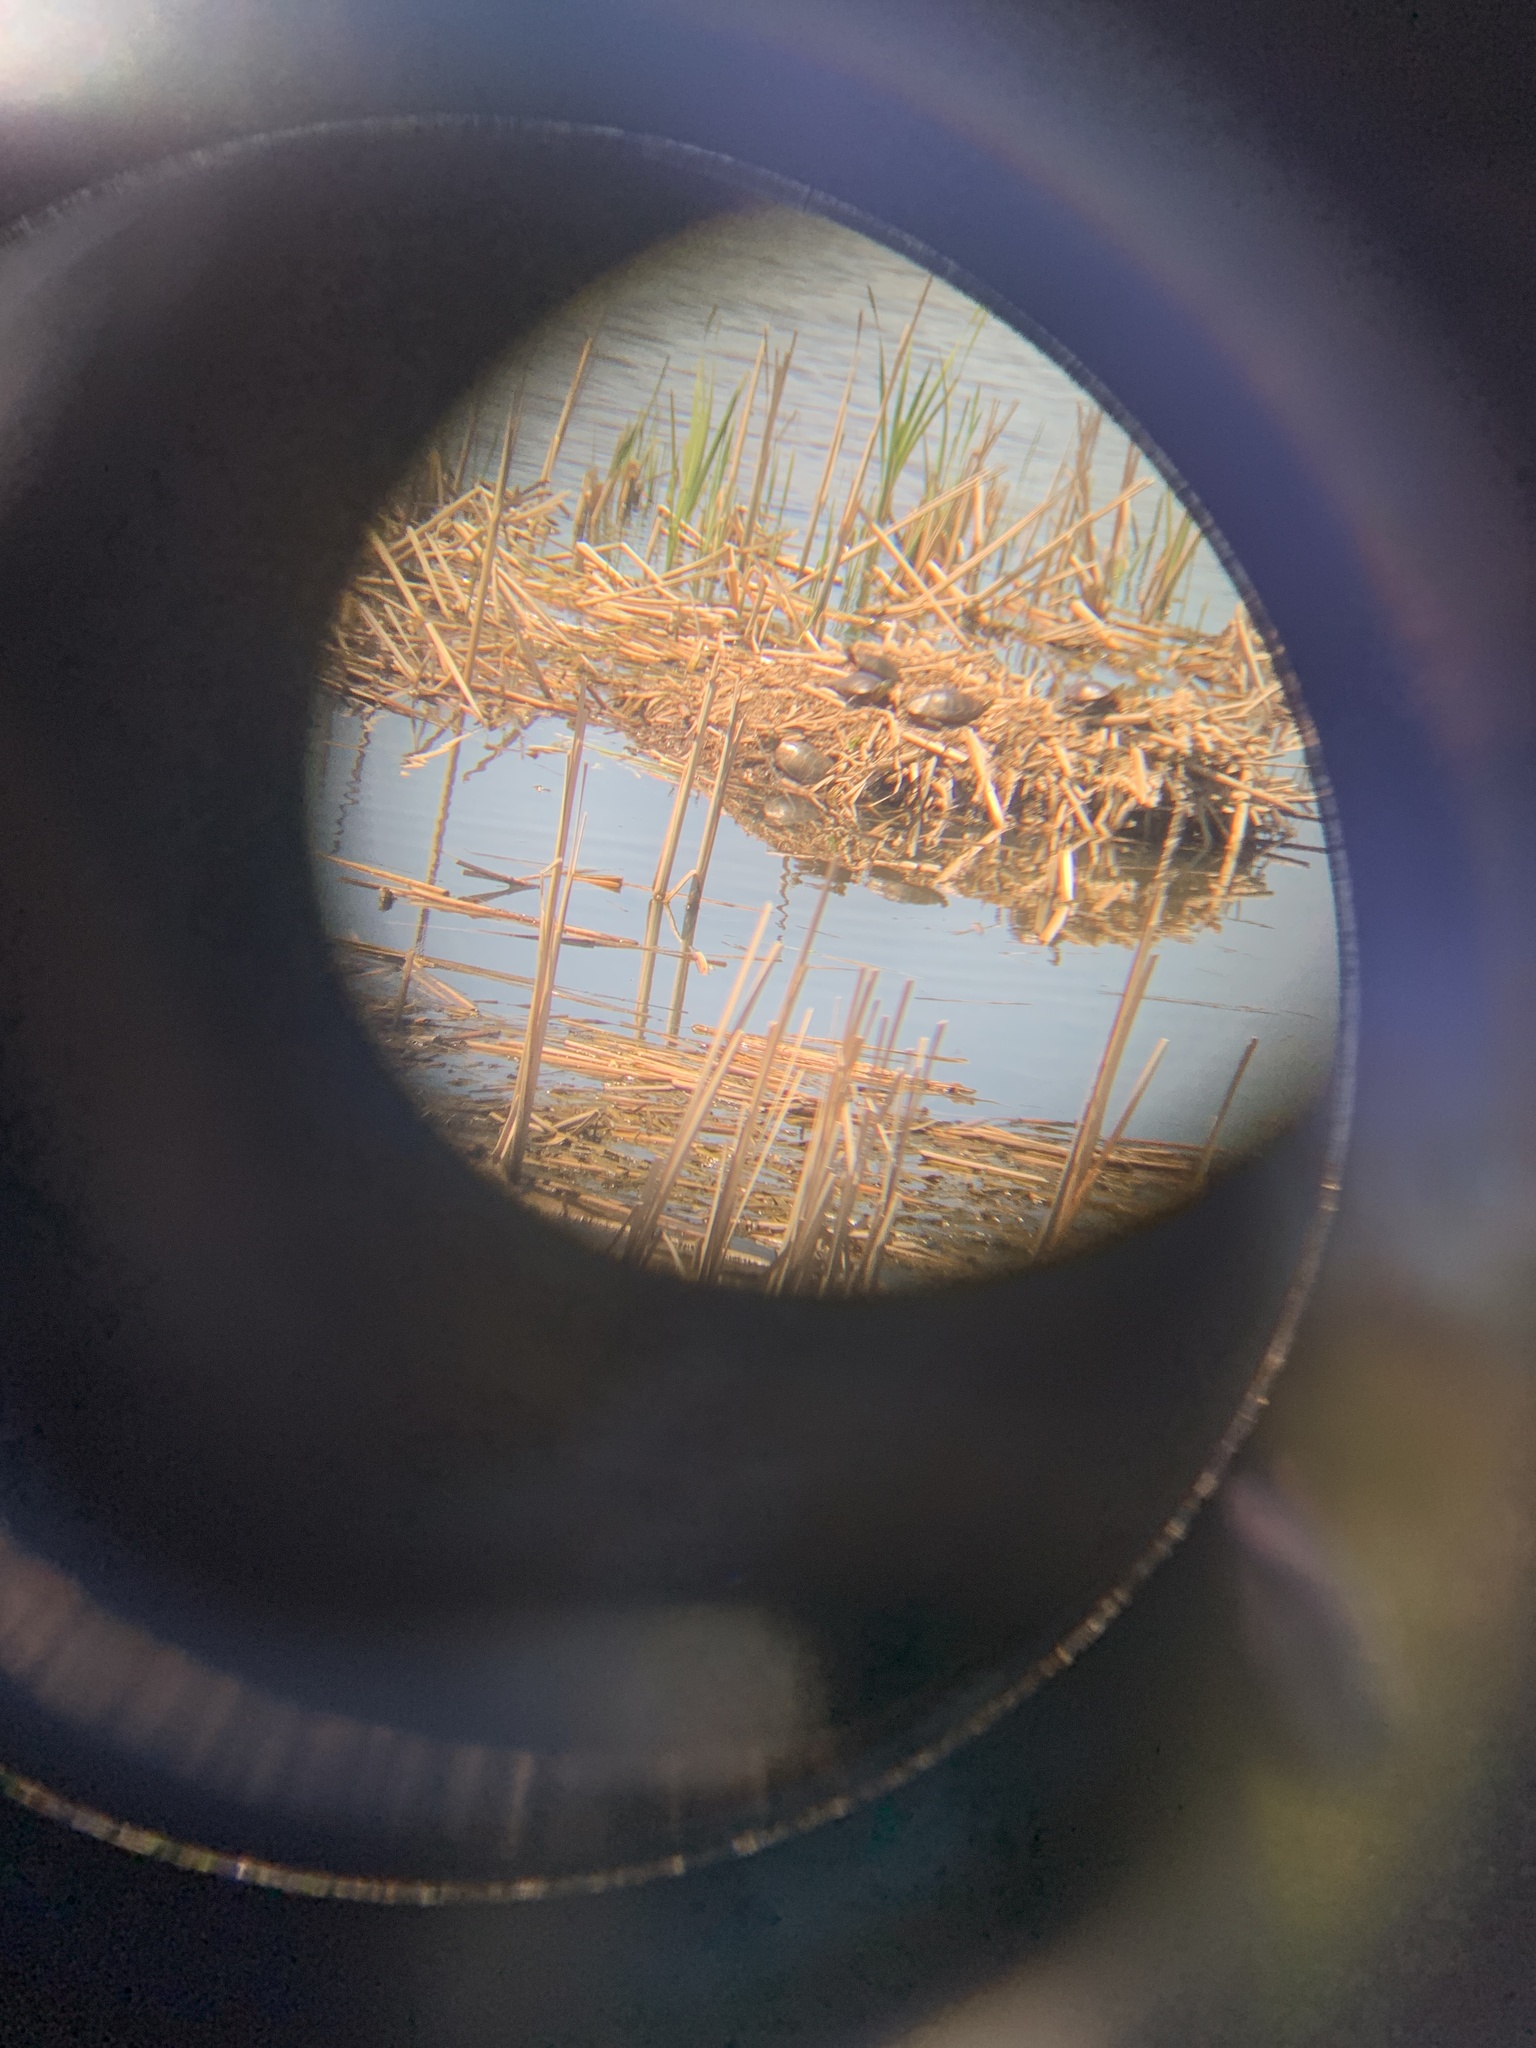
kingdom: Animalia
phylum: Chordata
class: Testudines
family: Emydidae
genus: Chrysemys
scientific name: Chrysemys picta
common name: Painted turtle
